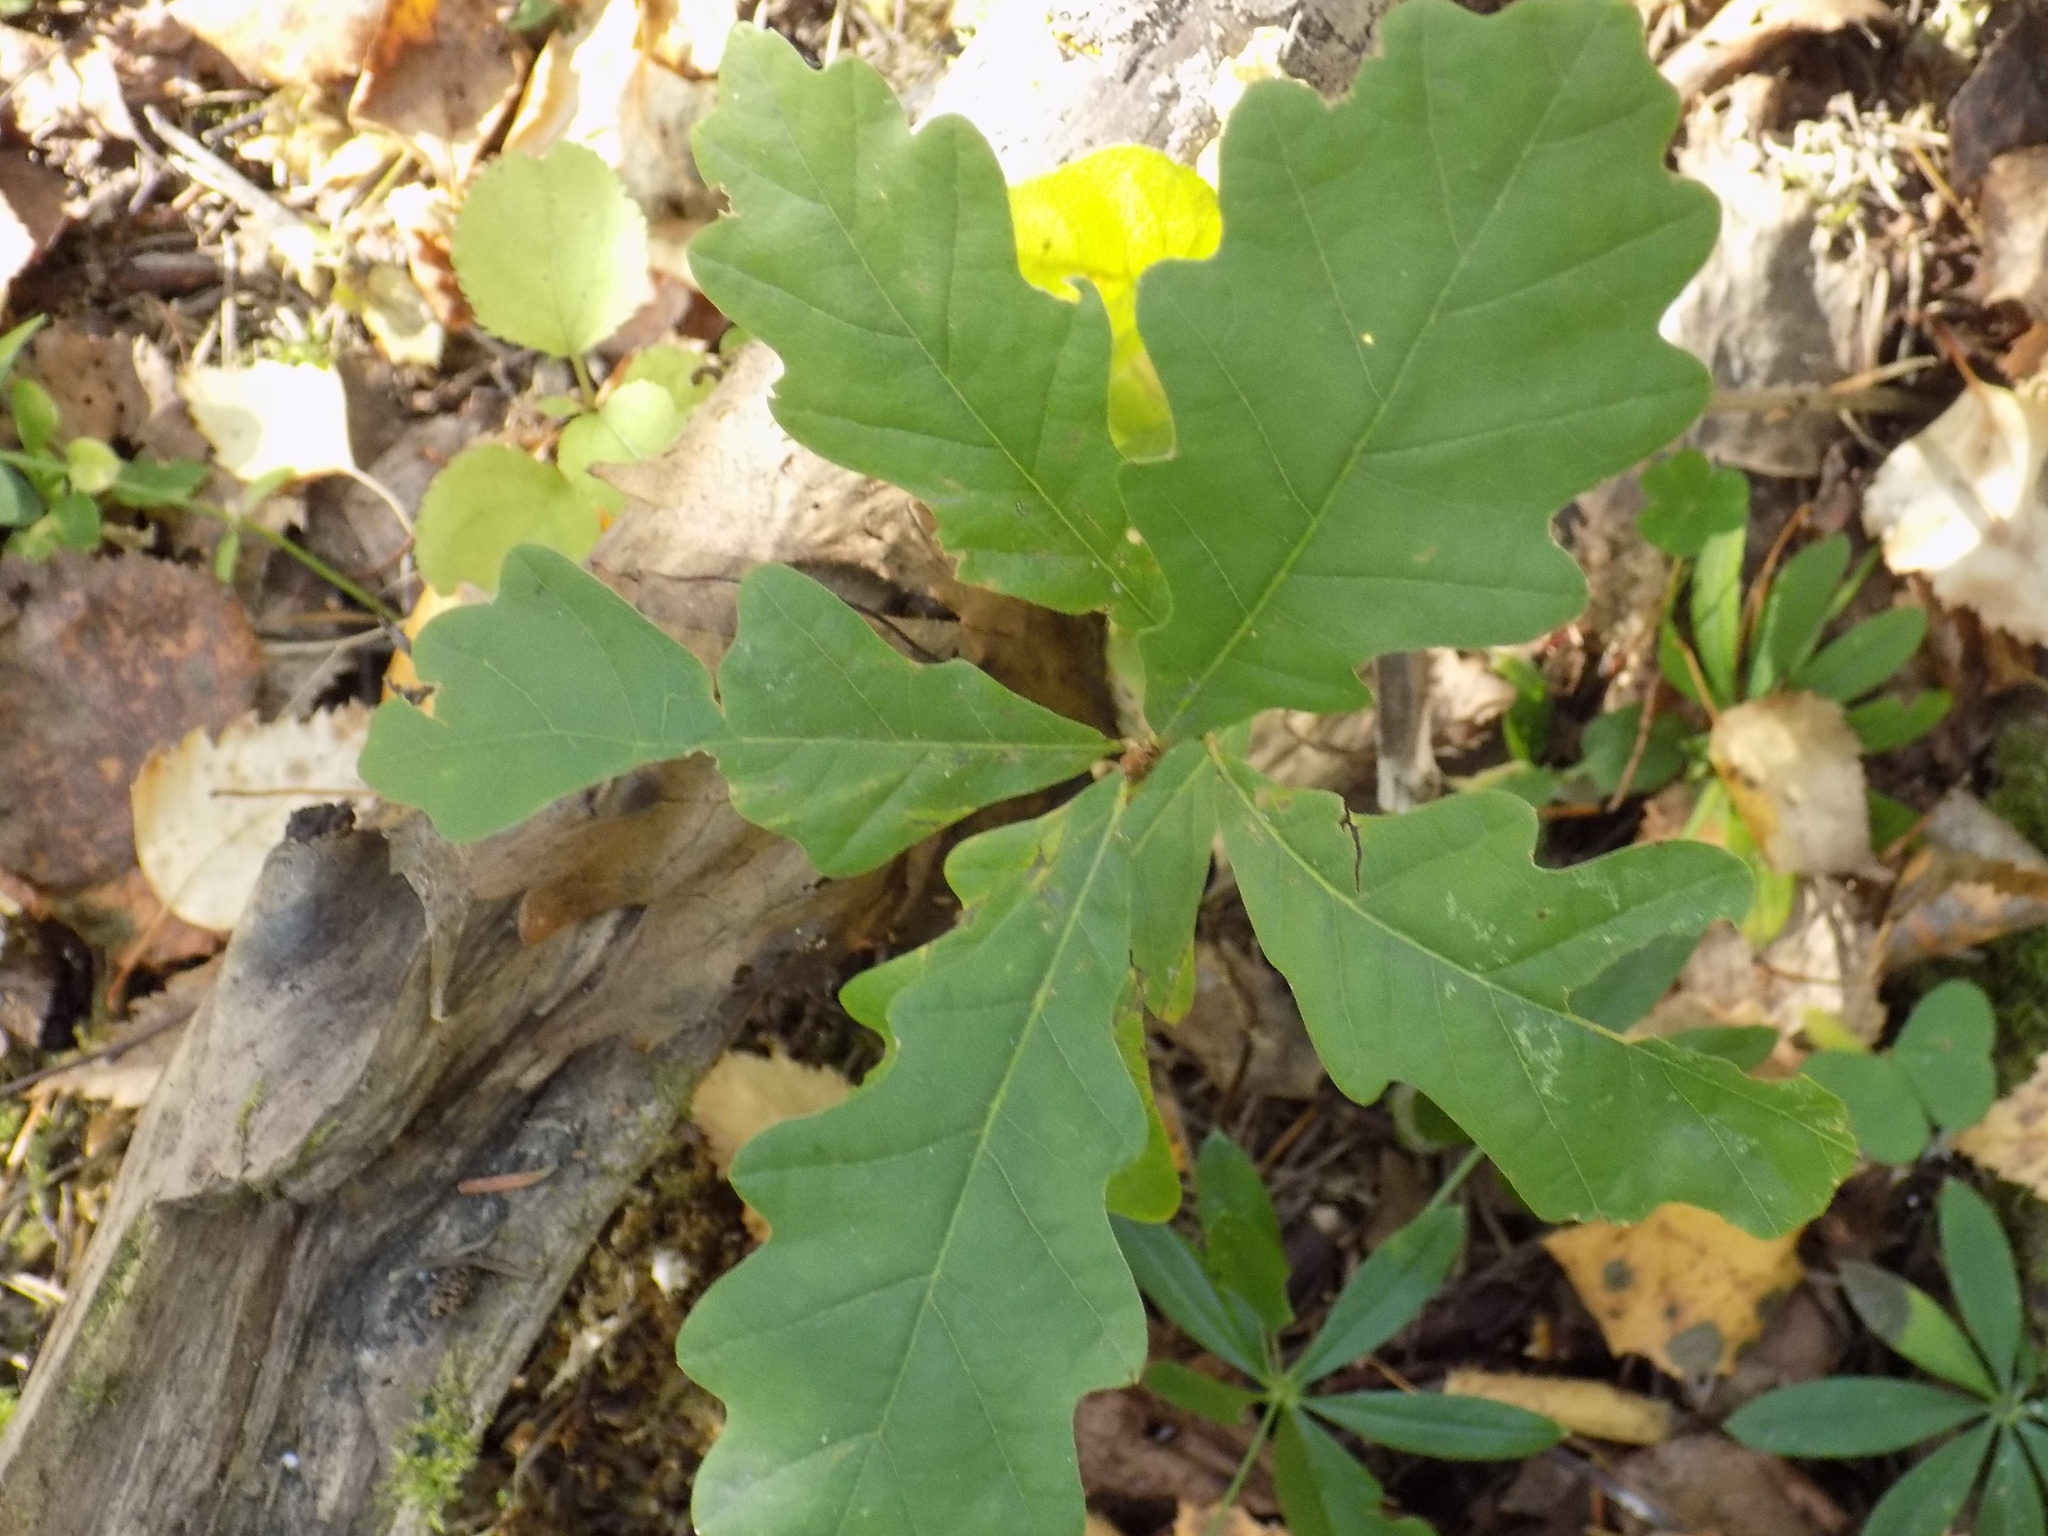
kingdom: Plantae
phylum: Tracheophyta
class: Magnoliopsida
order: Fagales
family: Fagaceae
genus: Quercus
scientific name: Quercus robur
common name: Pedunculate oak
